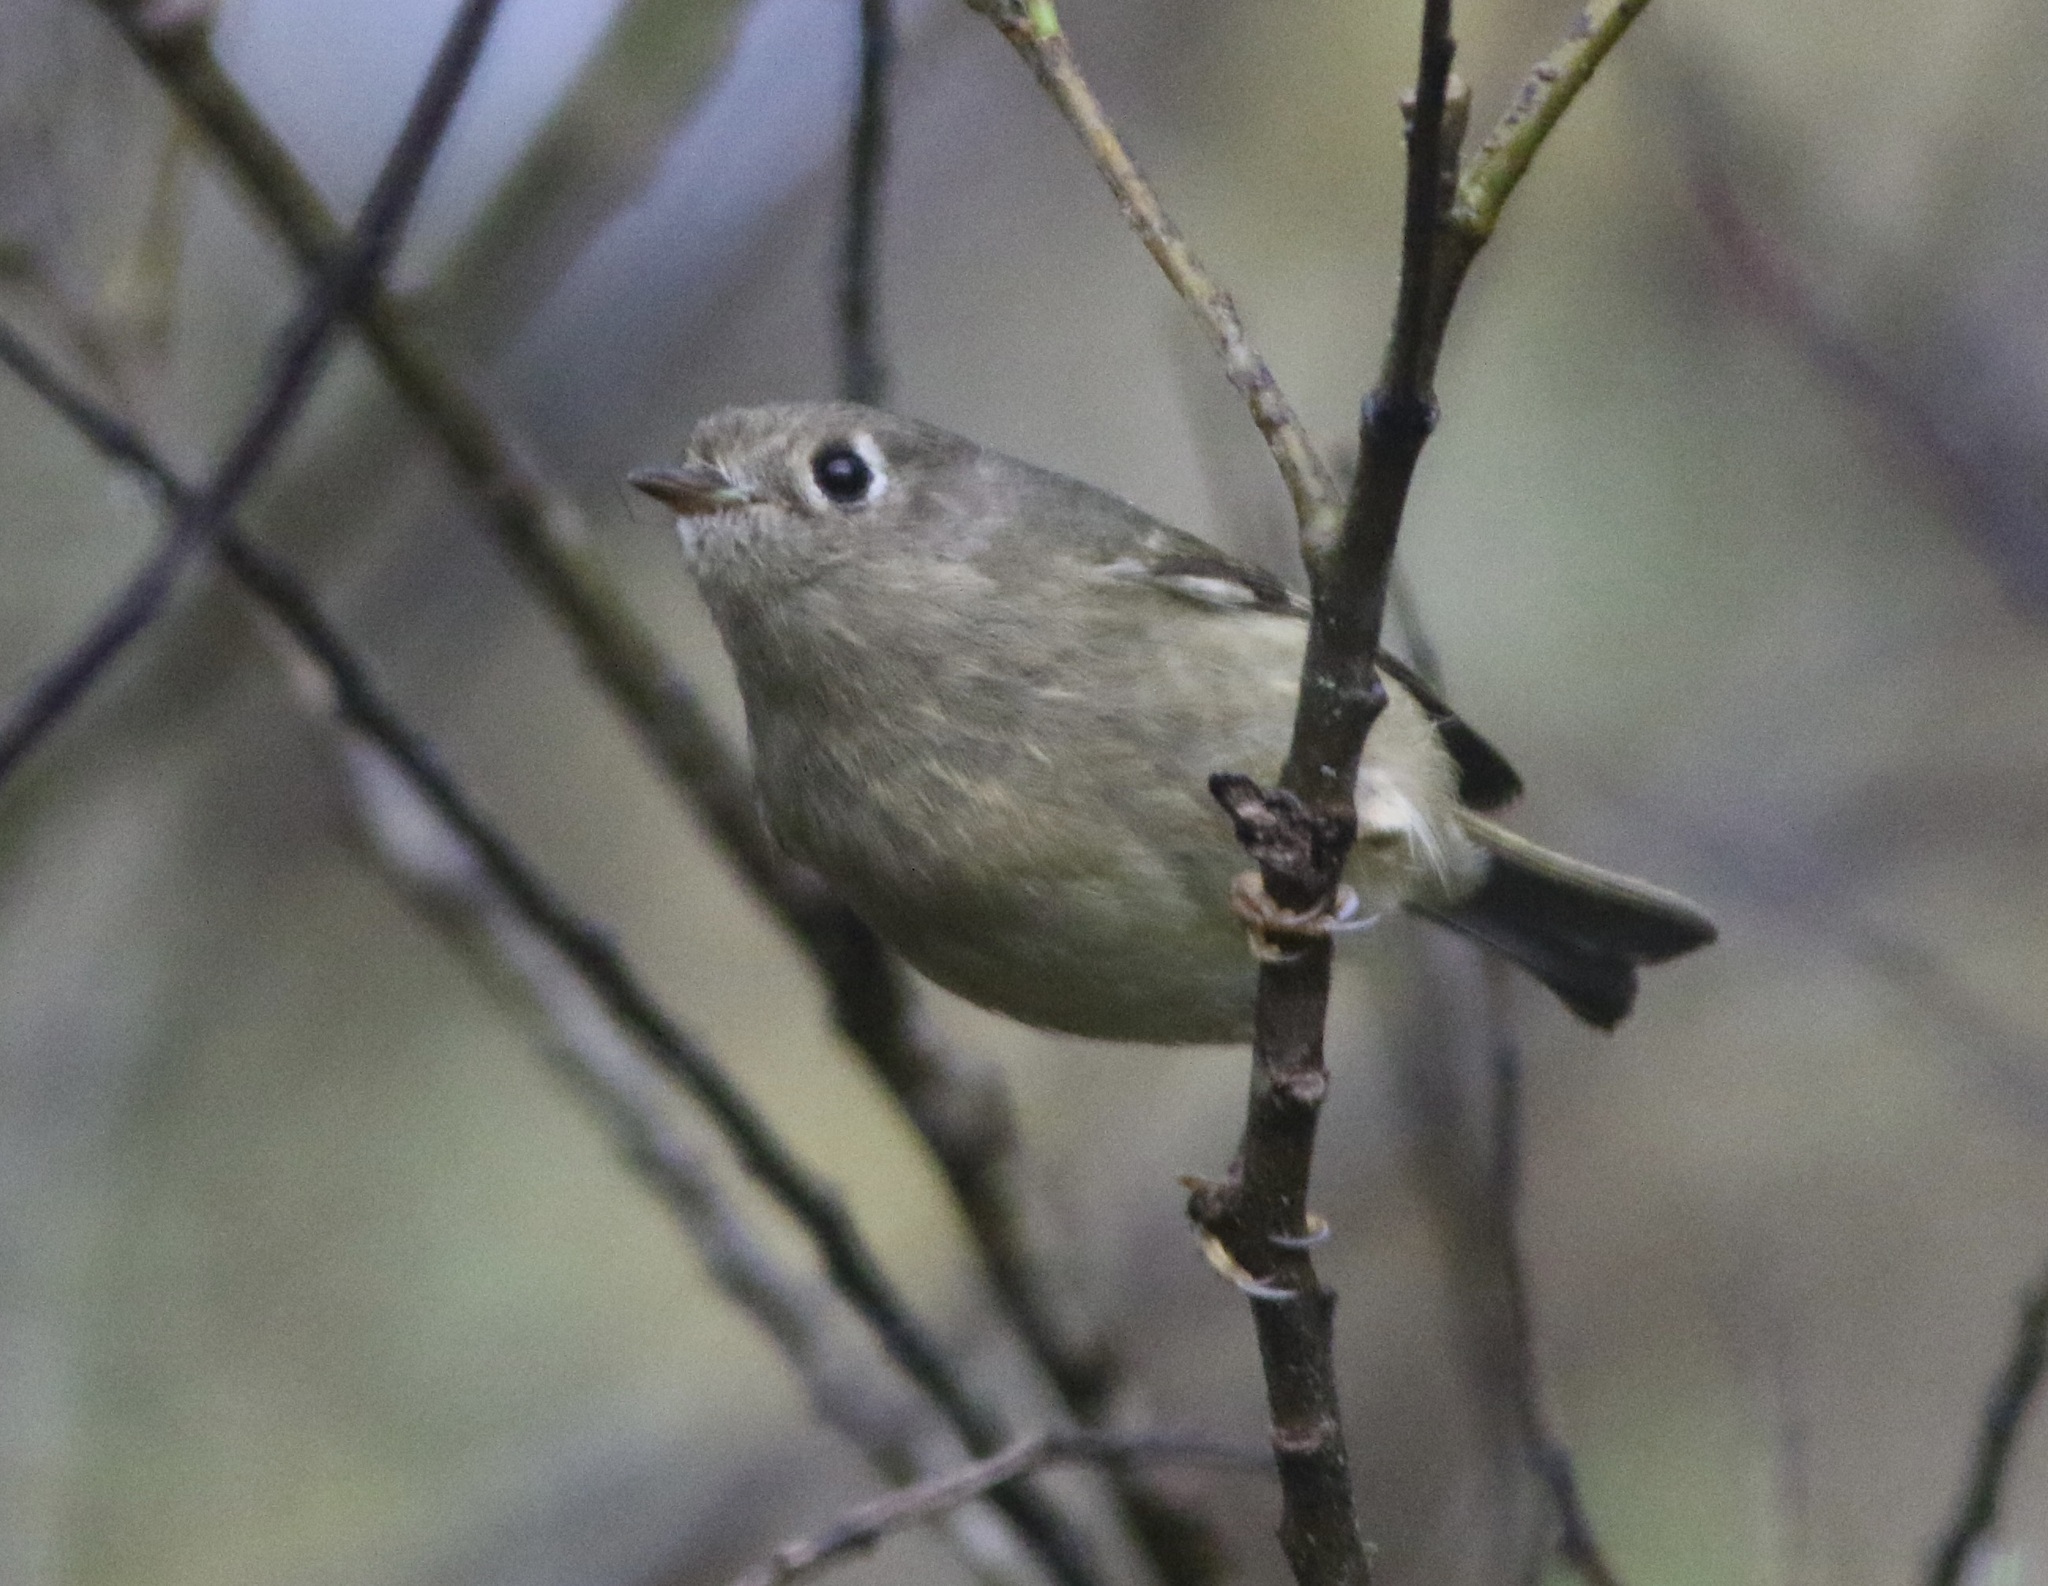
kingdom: Animalia
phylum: Chordata
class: Aves
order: Passeriformes
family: Regulidae
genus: Regulus
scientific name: Regulus calendula
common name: Ruby-crowned kinglet
